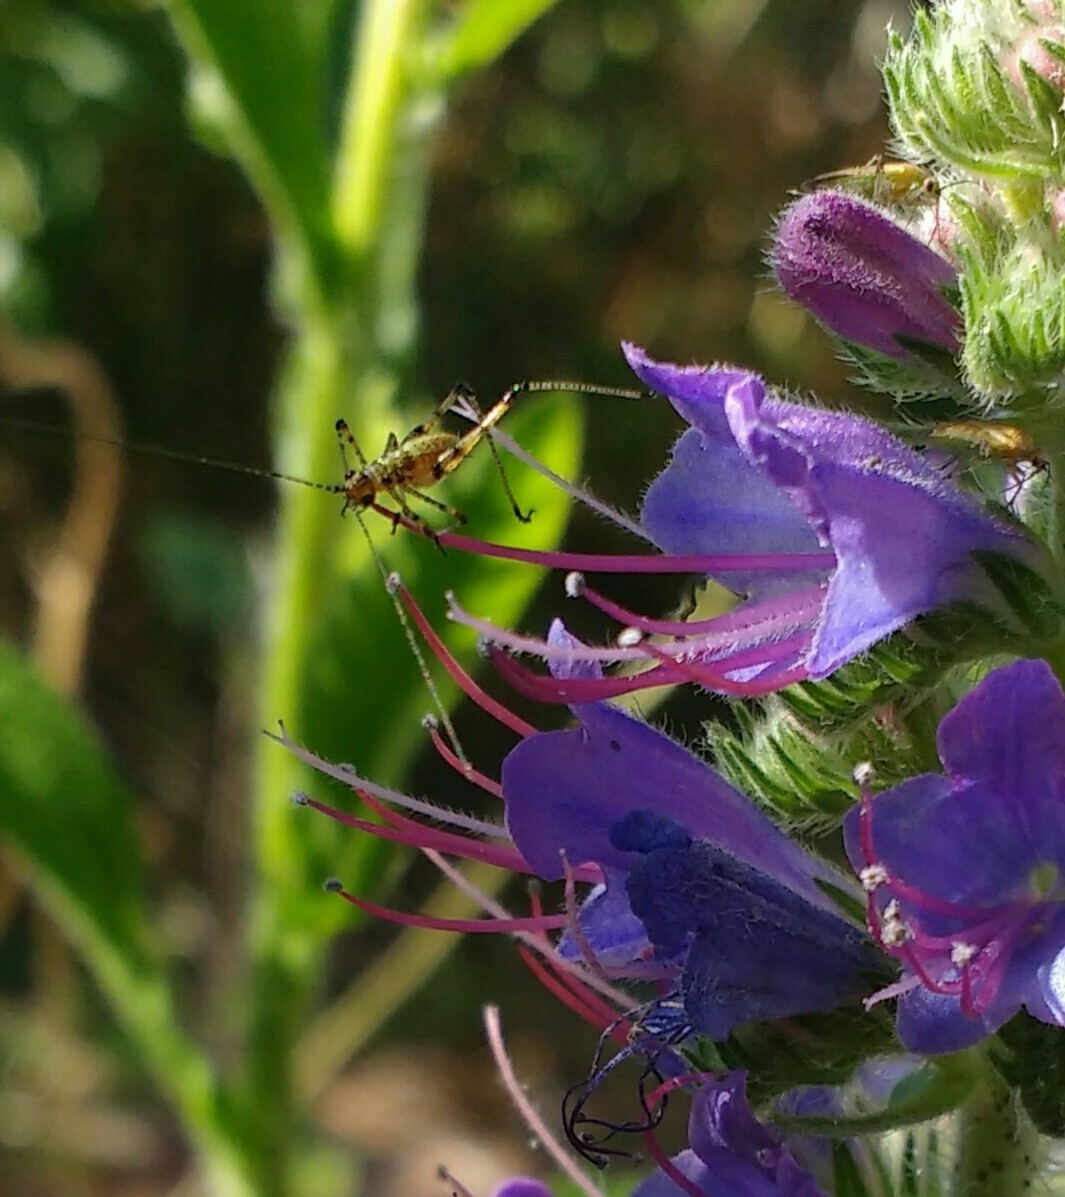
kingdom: Animalia
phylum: Arthropoda
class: Insecta
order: Orthoptera
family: Tettigoniidae
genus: Phaneroptera
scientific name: Phaneroptera nana
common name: Southern sickle bush-cricket
